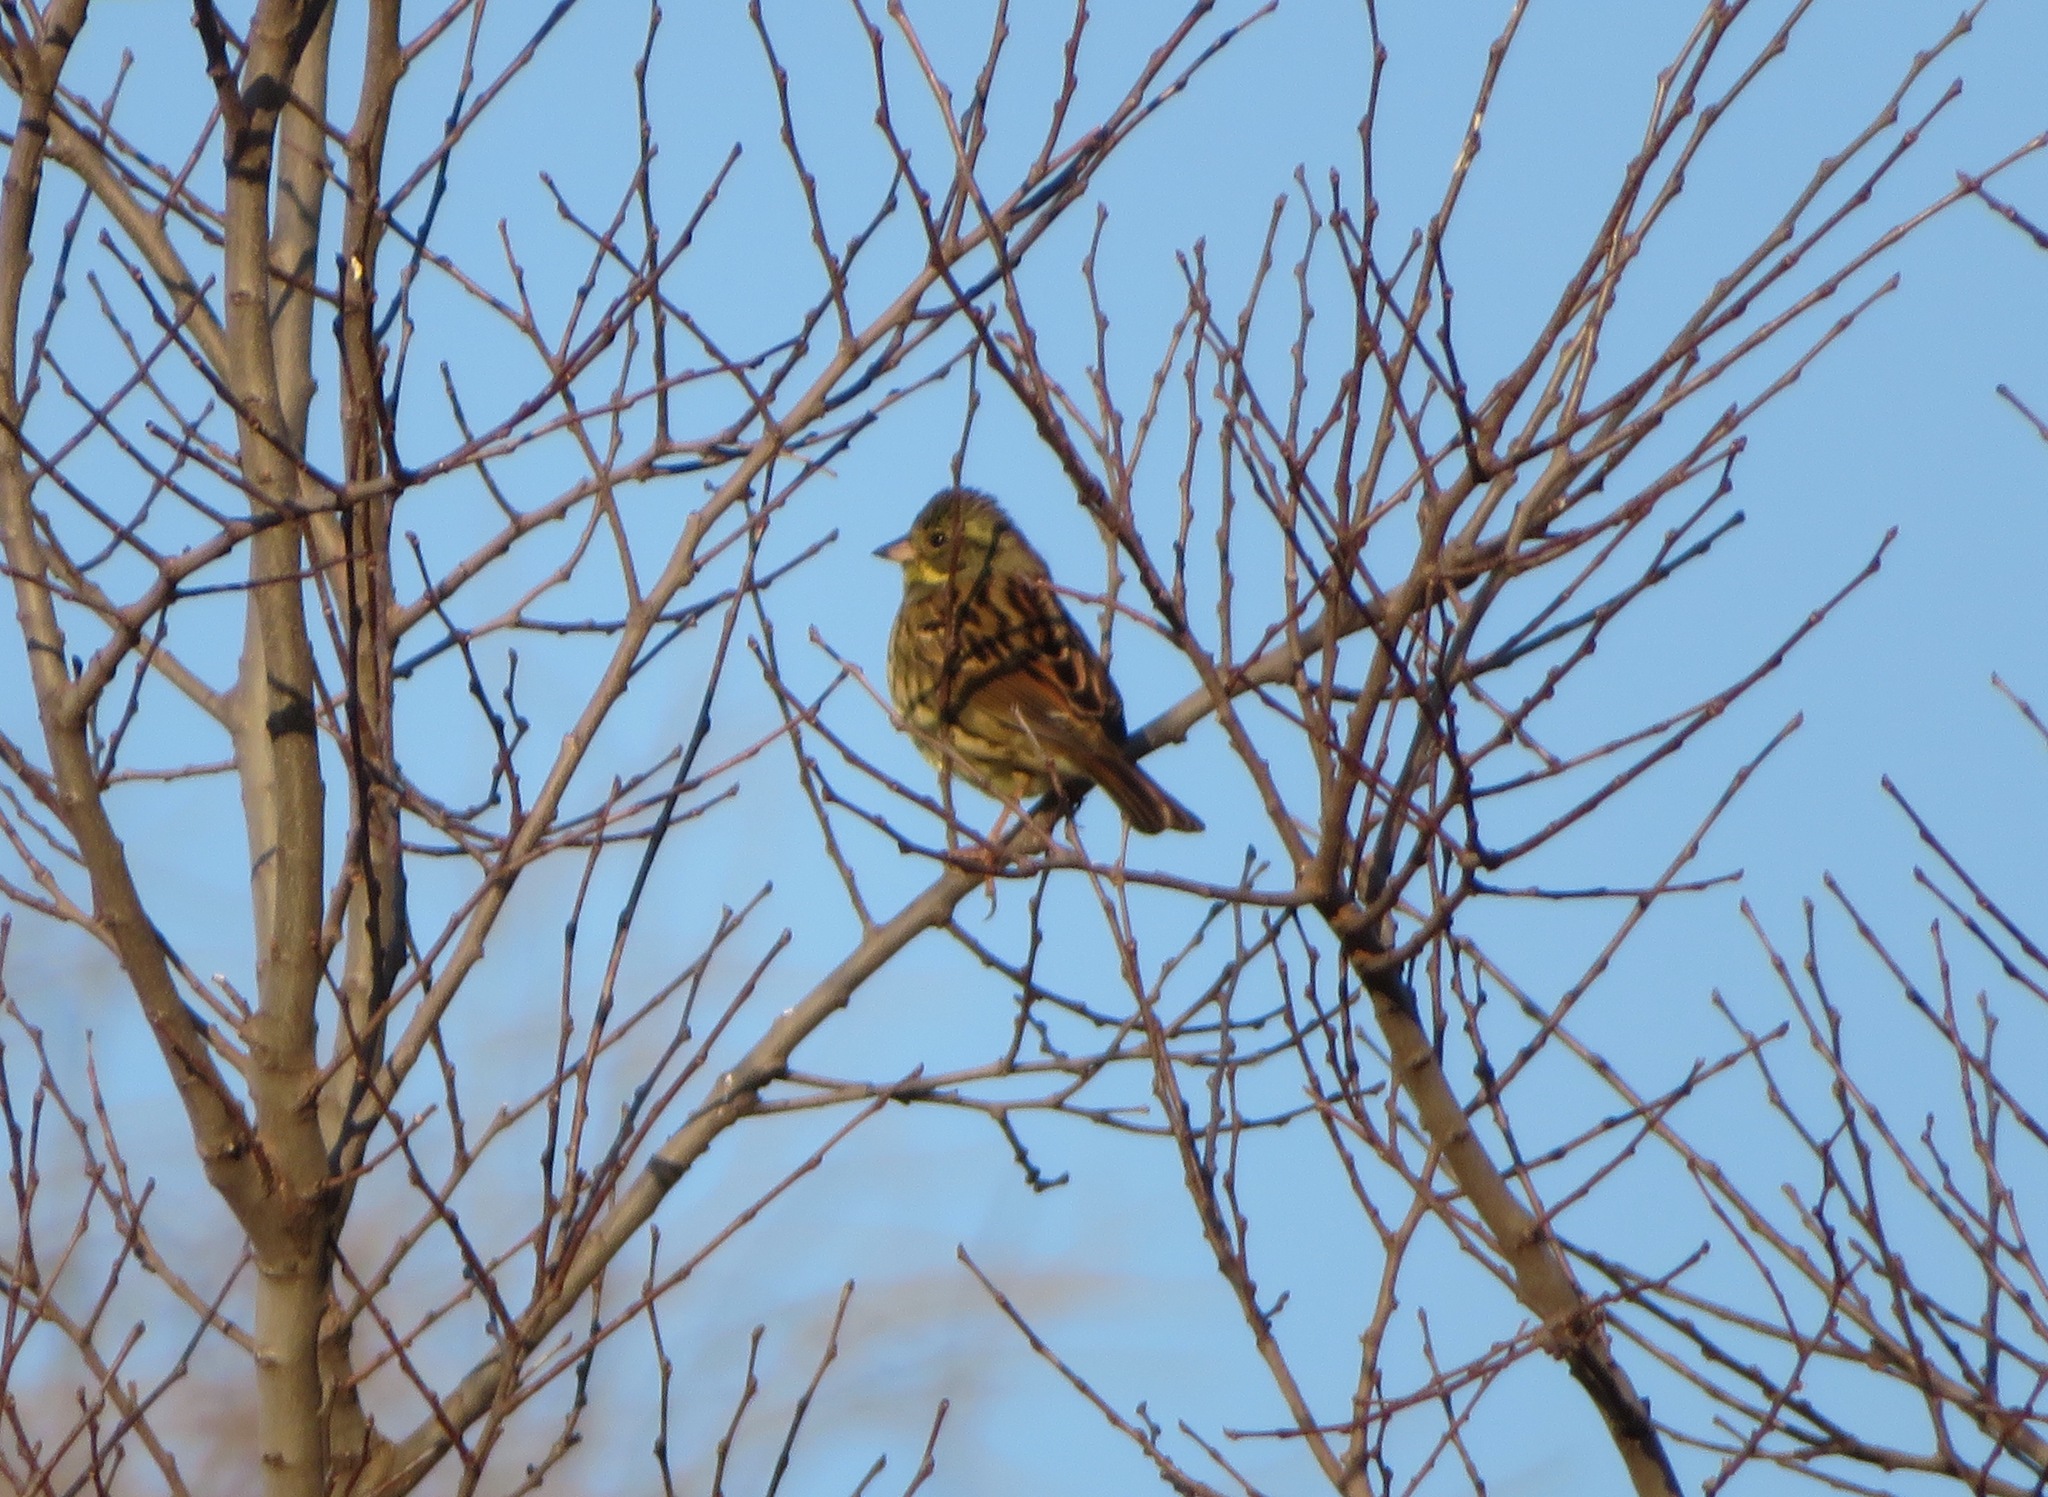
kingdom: Animalia
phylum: Chordata
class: Aves
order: Passeriformes
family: Emberizidae
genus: Emberiza
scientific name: Emberiza personata
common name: Masked bunting
